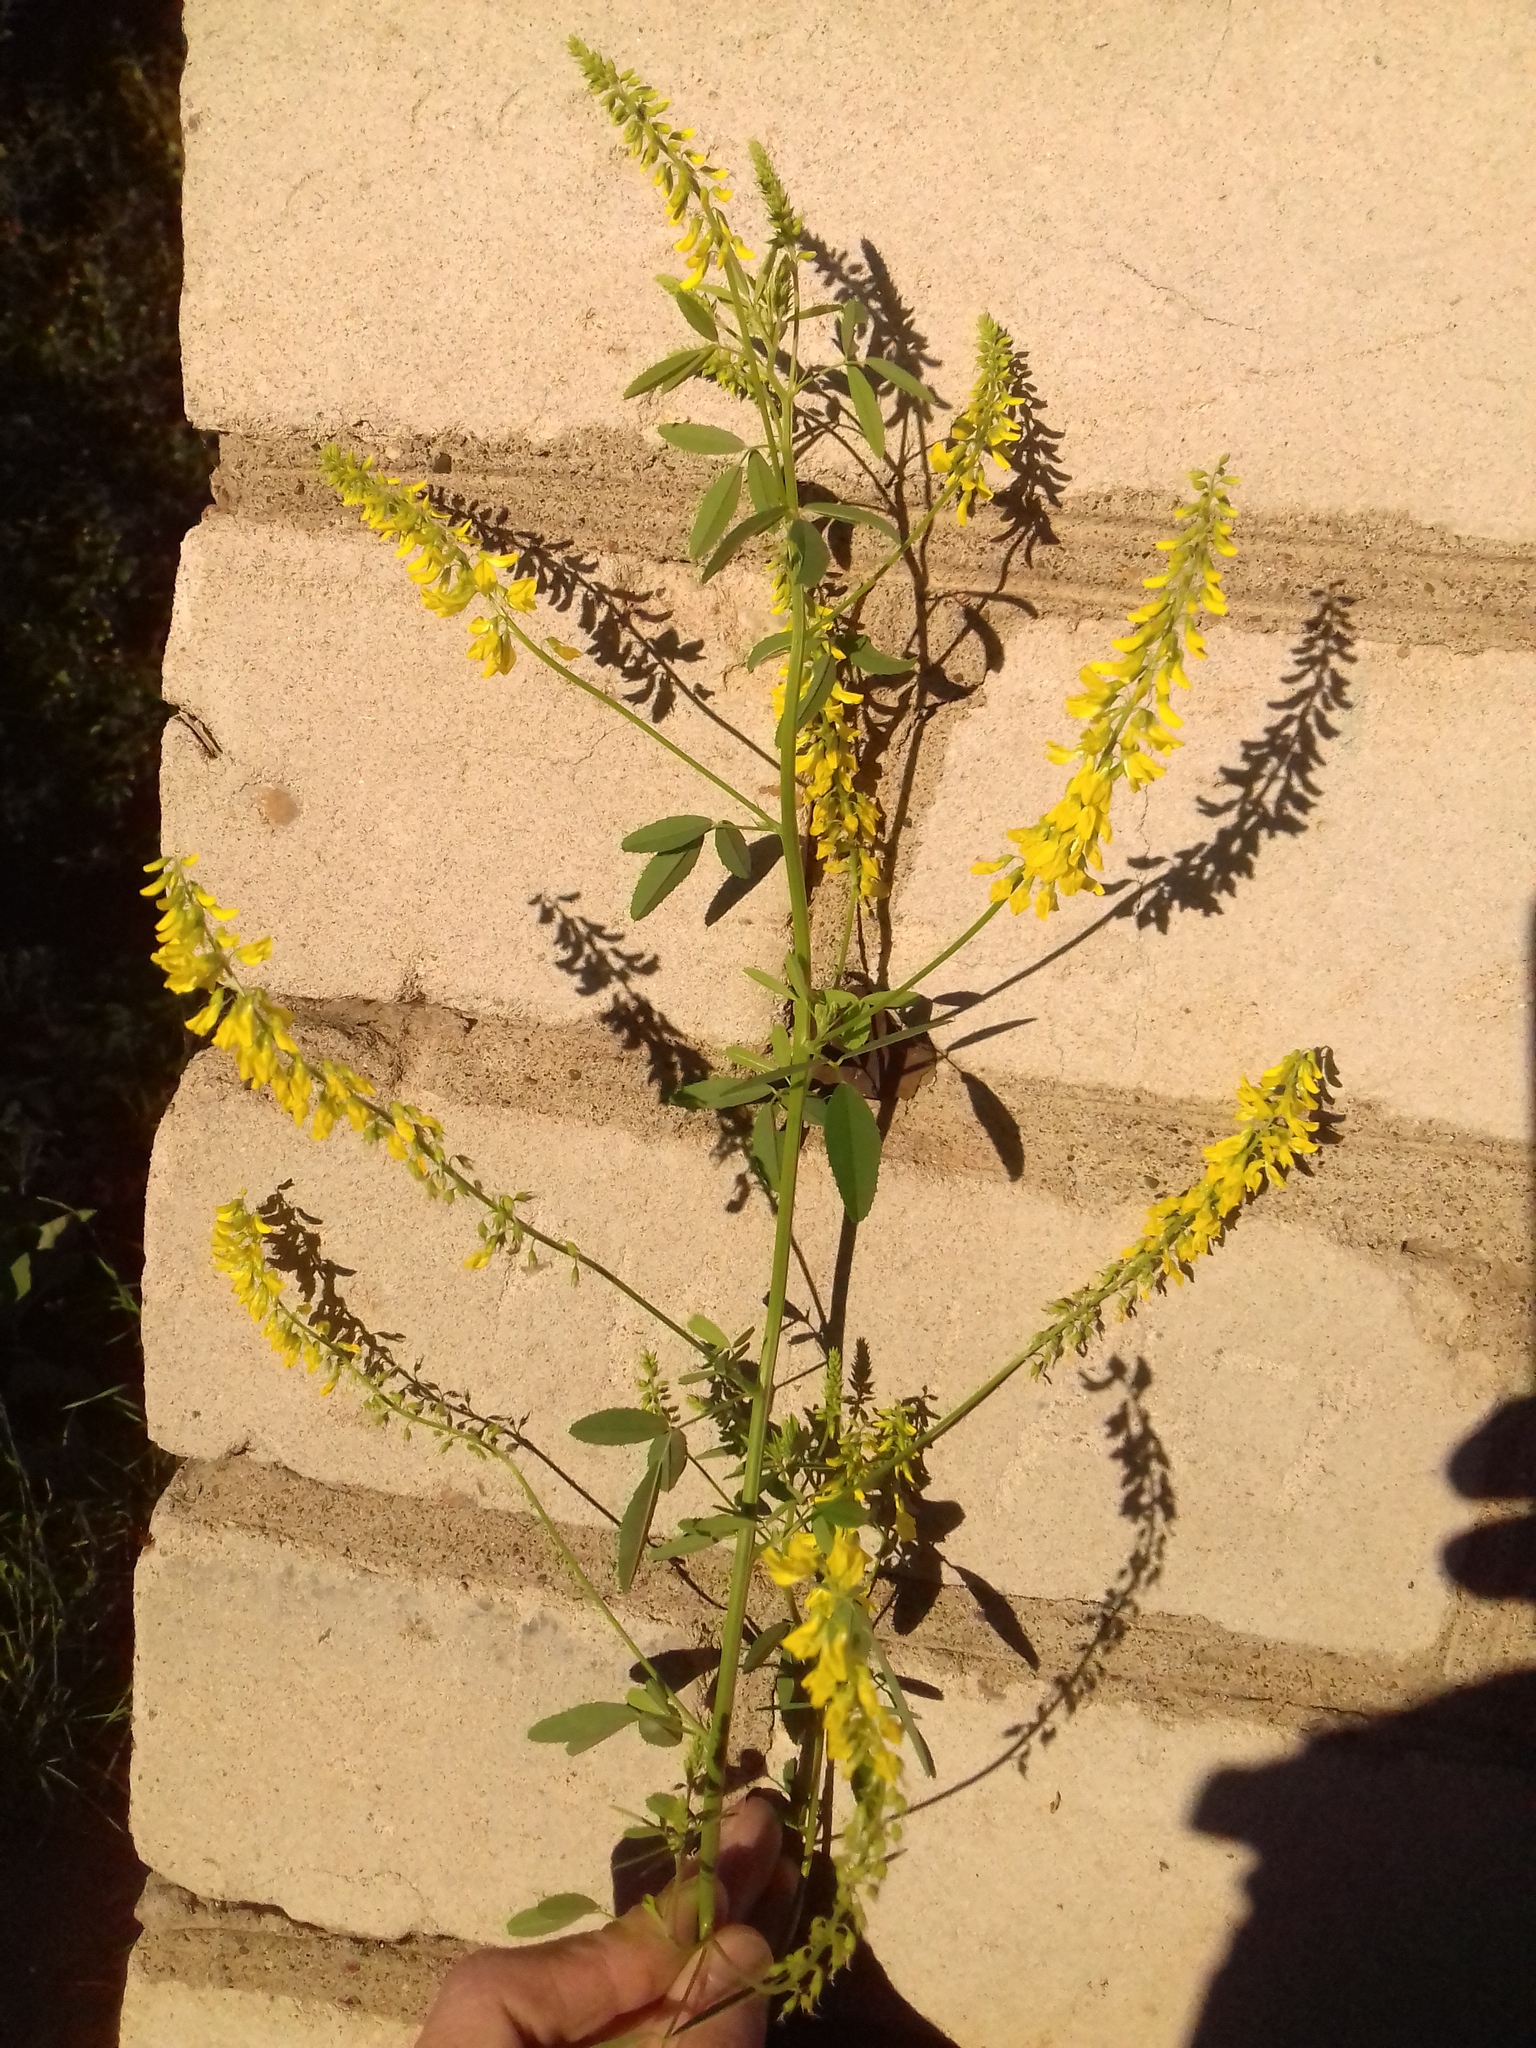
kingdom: Plantae
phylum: Tracheophyta
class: Magnoliopsida
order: Fabales
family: Fabaceae
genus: Melilotus
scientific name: Melilotus officinalis
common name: Sweetclover
